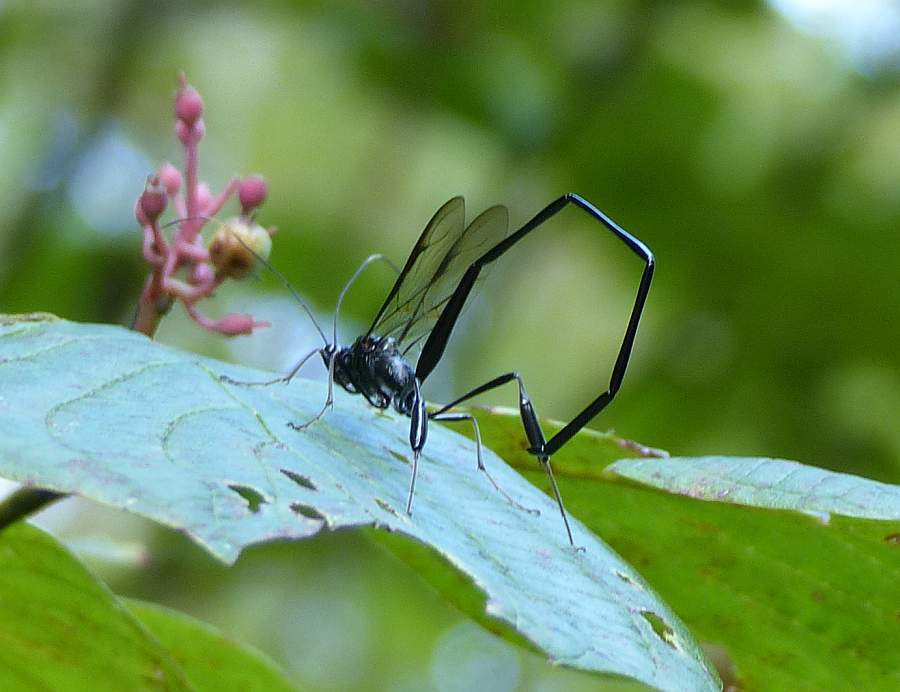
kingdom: Animalia
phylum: Arthropoda
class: Insecta
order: Hymenoptera
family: Pelecinidae
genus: Pelecinus
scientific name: Pelecinus polyturator
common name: American pelecinid wasp
